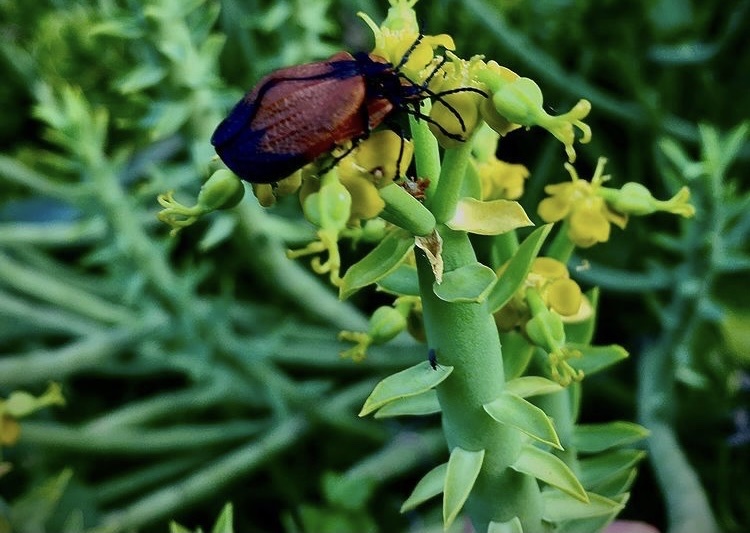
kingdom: Animalia
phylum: Arthropoda
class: Insecta
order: Coleoptera
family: Lycidae
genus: Lycus
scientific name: Lycus
